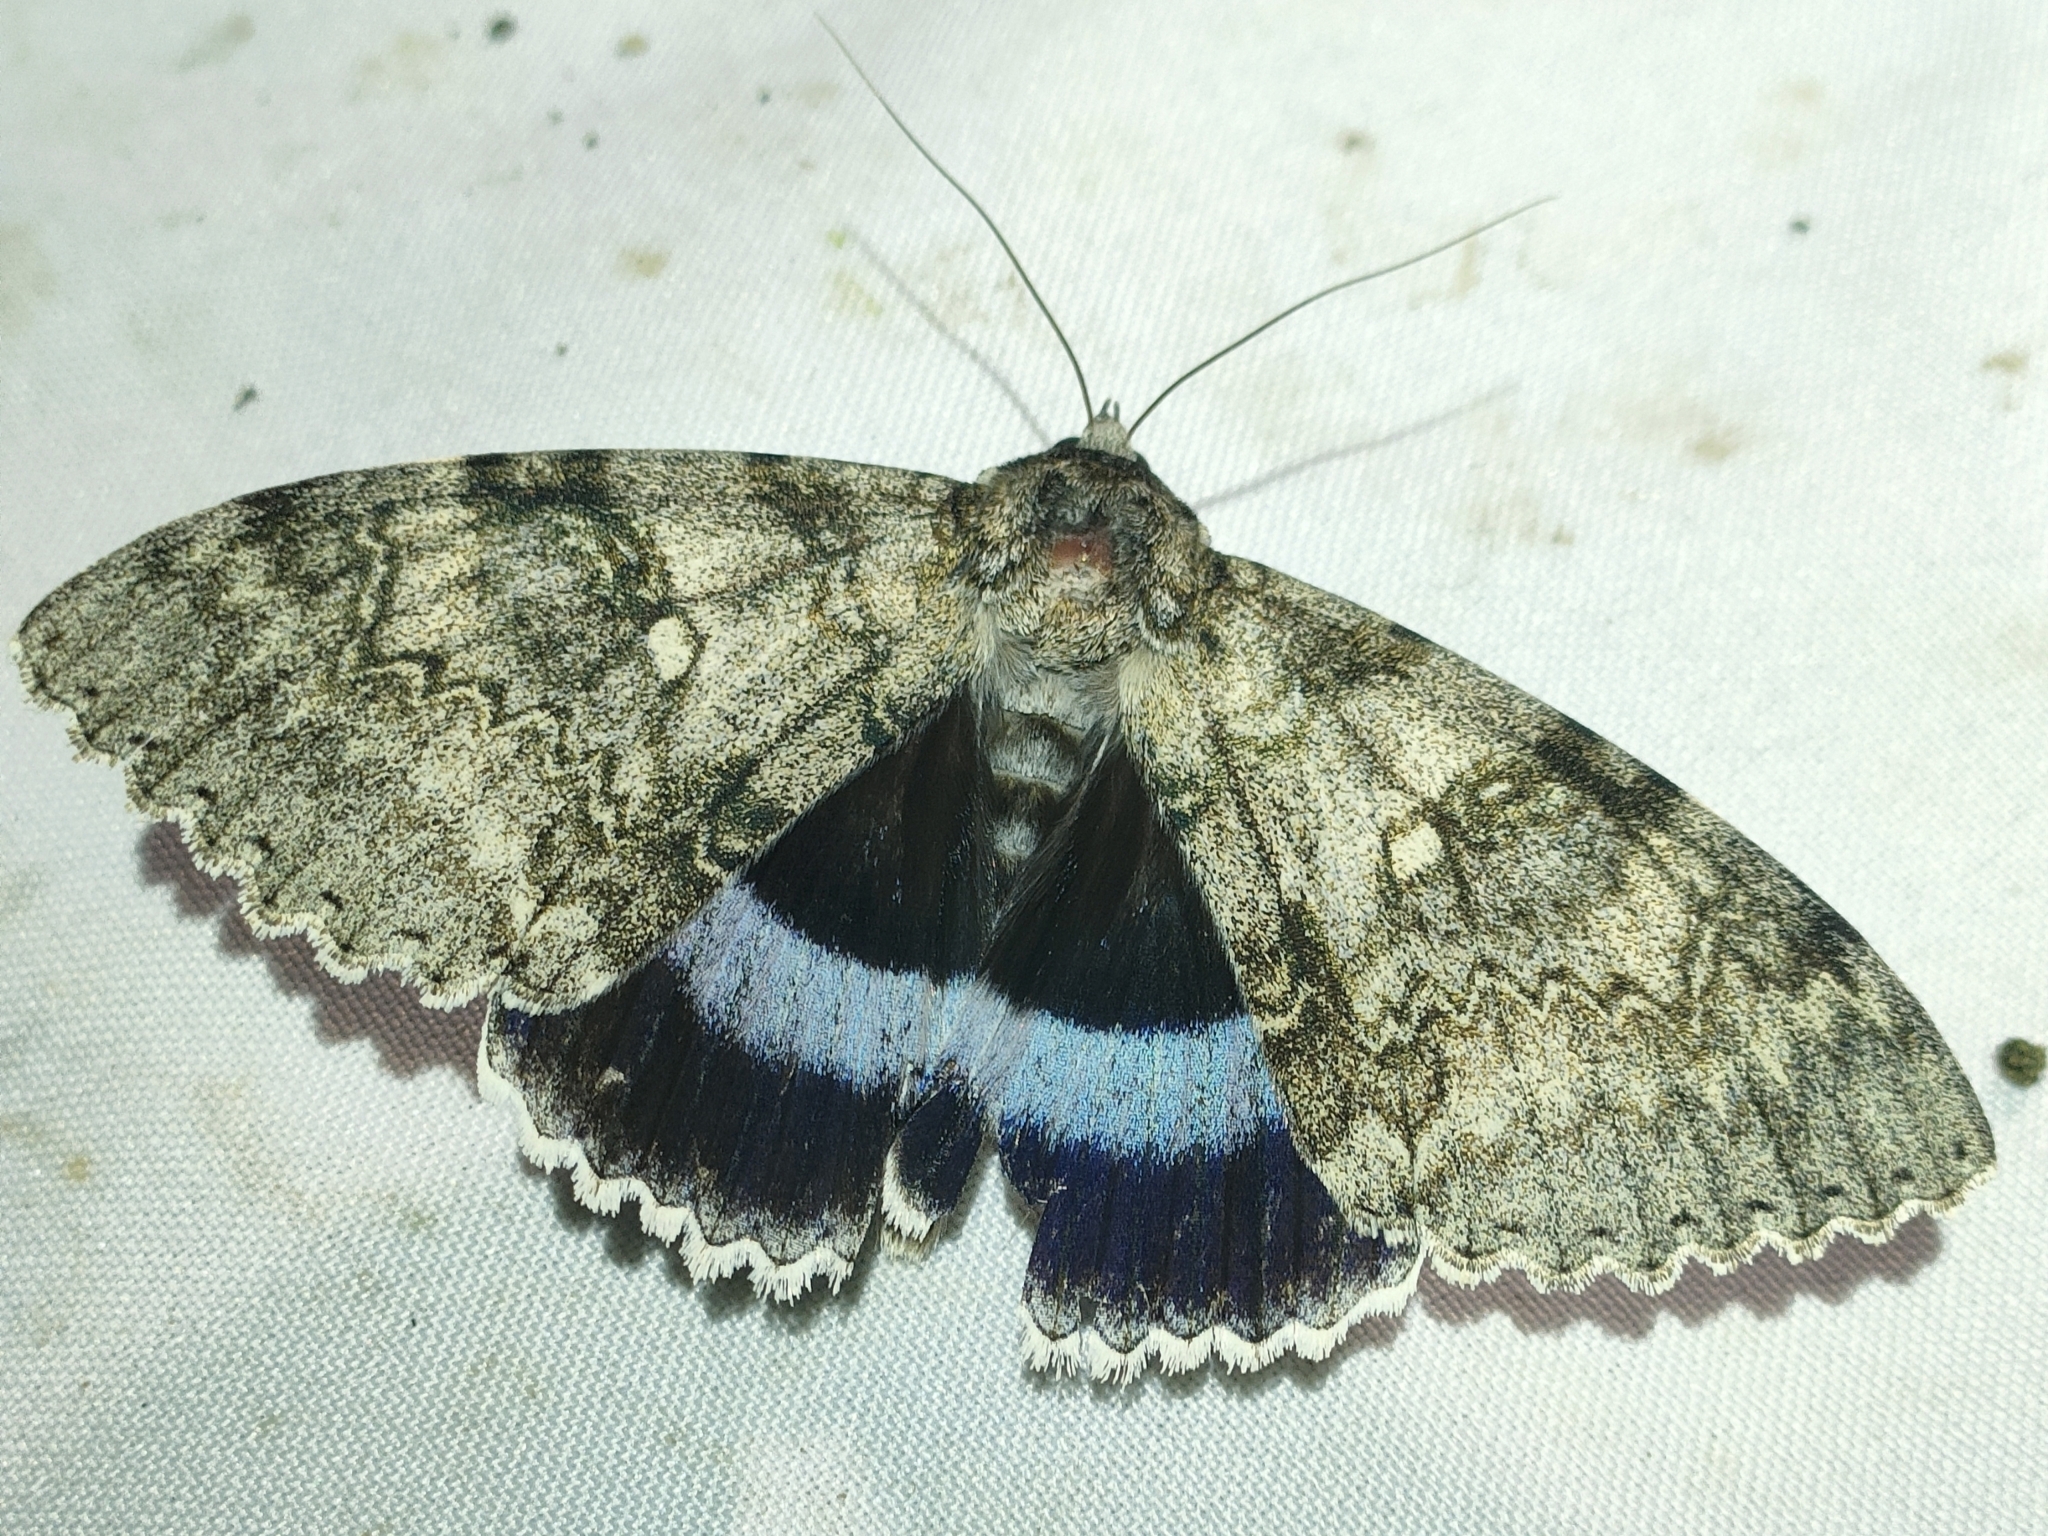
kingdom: Animalia
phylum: Arthropoda
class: Insecta
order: Lepidoptera
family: Erebidae
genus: Catocala
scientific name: Catocala fraxini
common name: Clifden nonpareil
